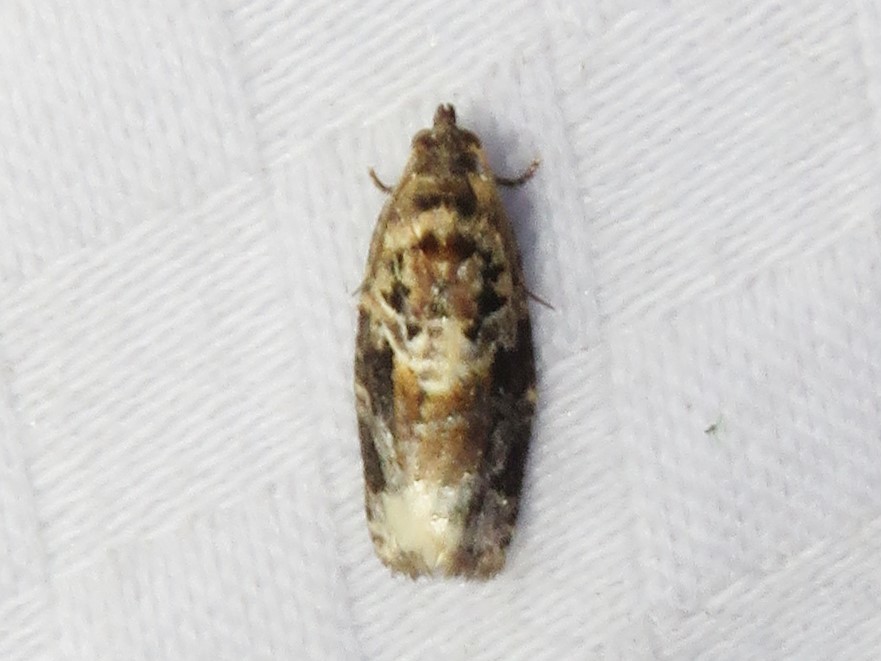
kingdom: Animalia
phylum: Arthropoda
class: Insecta
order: Lepidoptera
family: Tortricidae
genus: Argyrotaenia
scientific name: Argyrotaenia velutinana
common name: Red-banded leafroller moth
